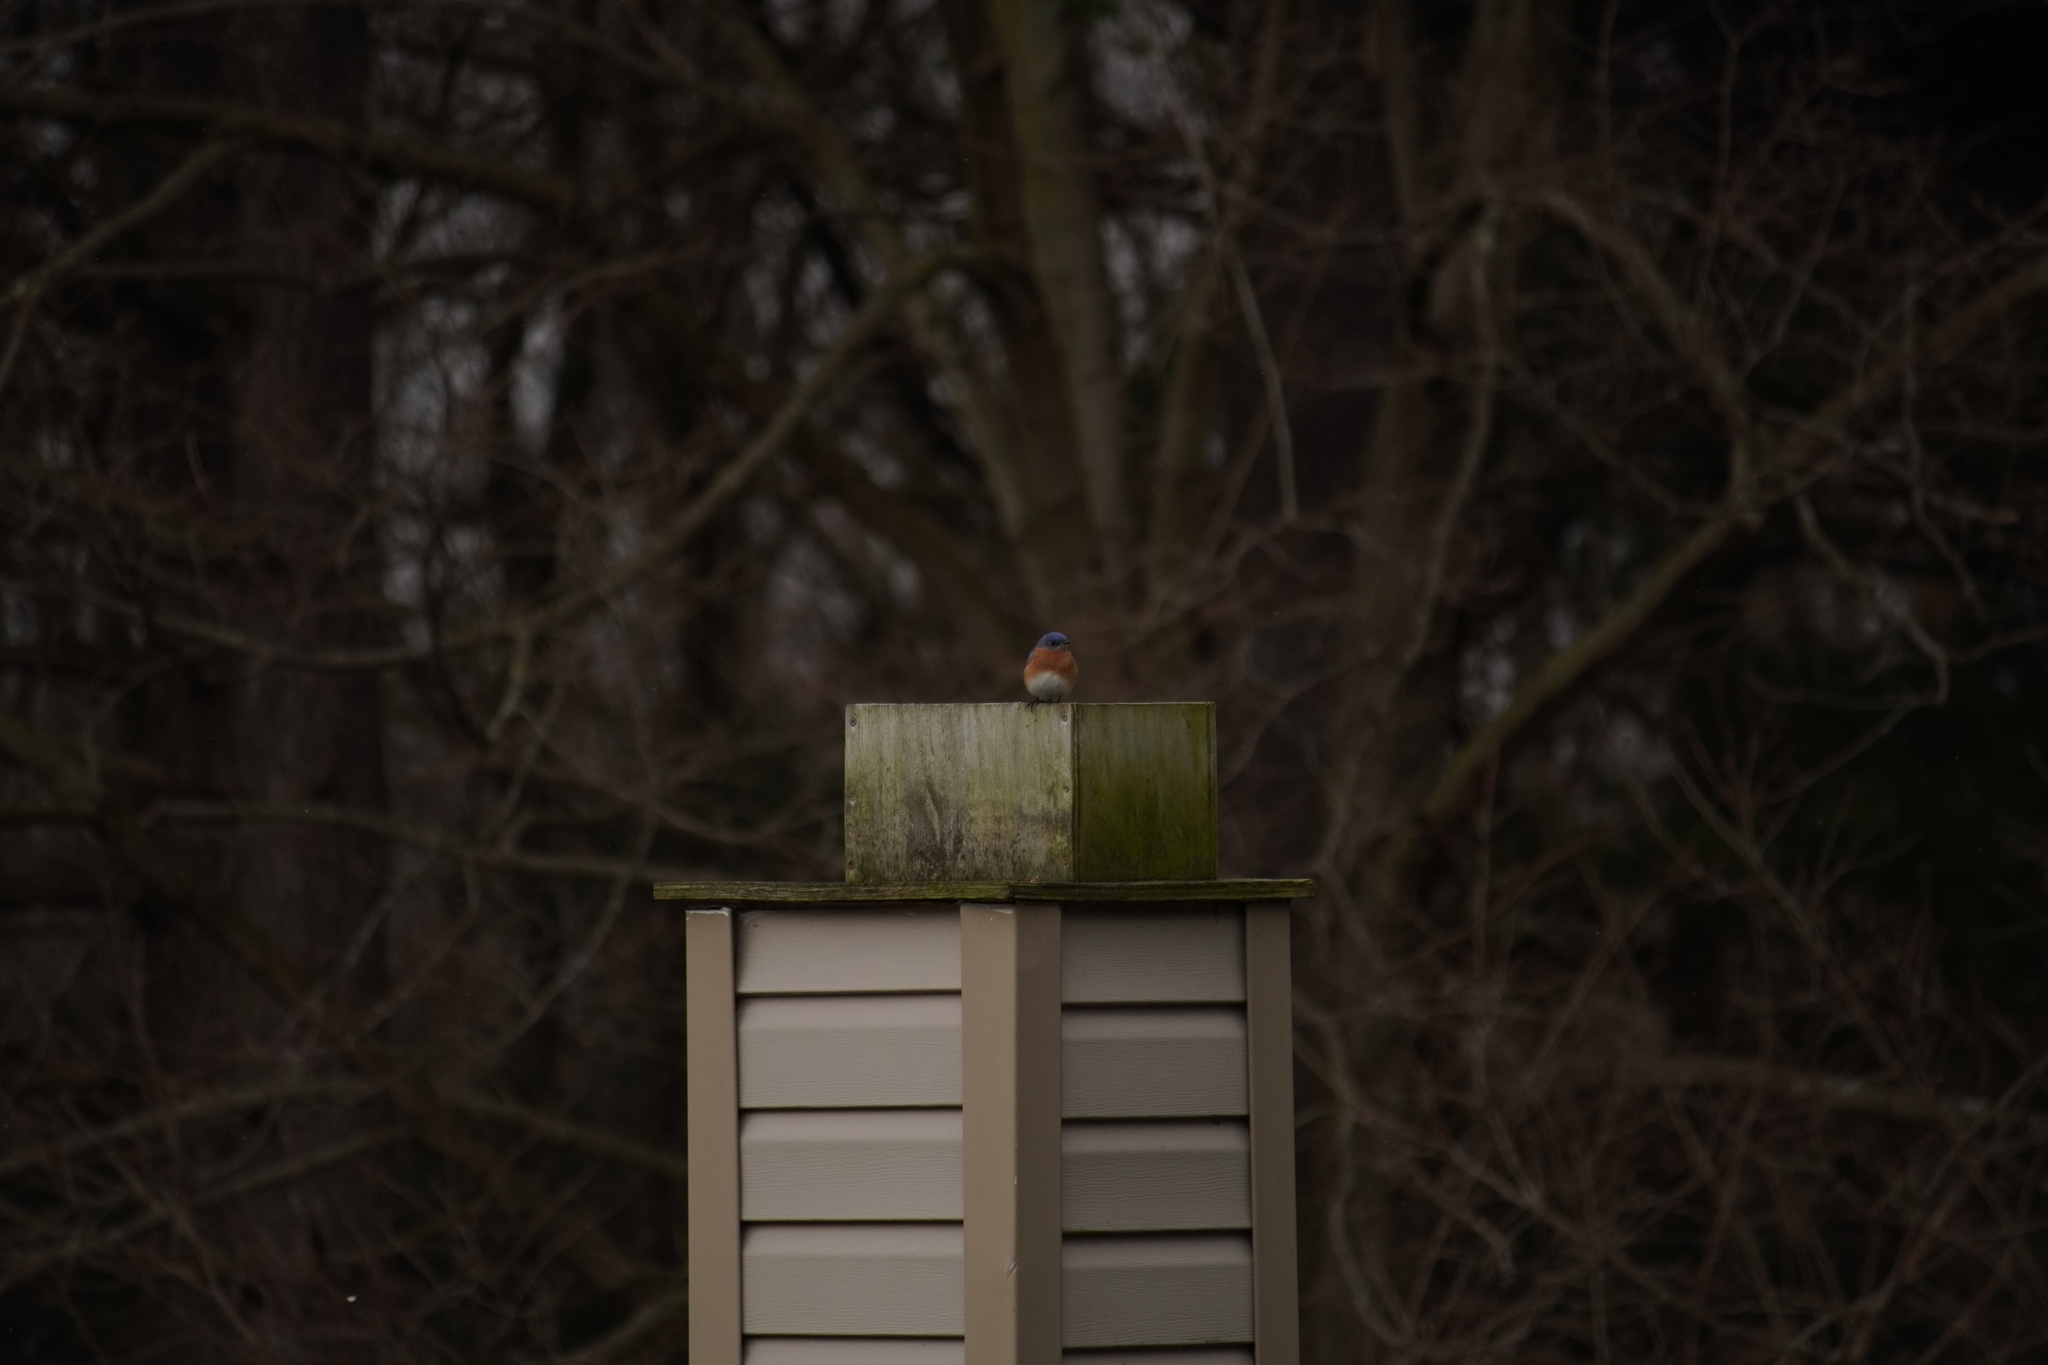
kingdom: Animalia
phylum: Chordata
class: Aves
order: Passeriformes
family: Turdidae
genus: Sialia
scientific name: Sialia sialis
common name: Eastern bluebird
